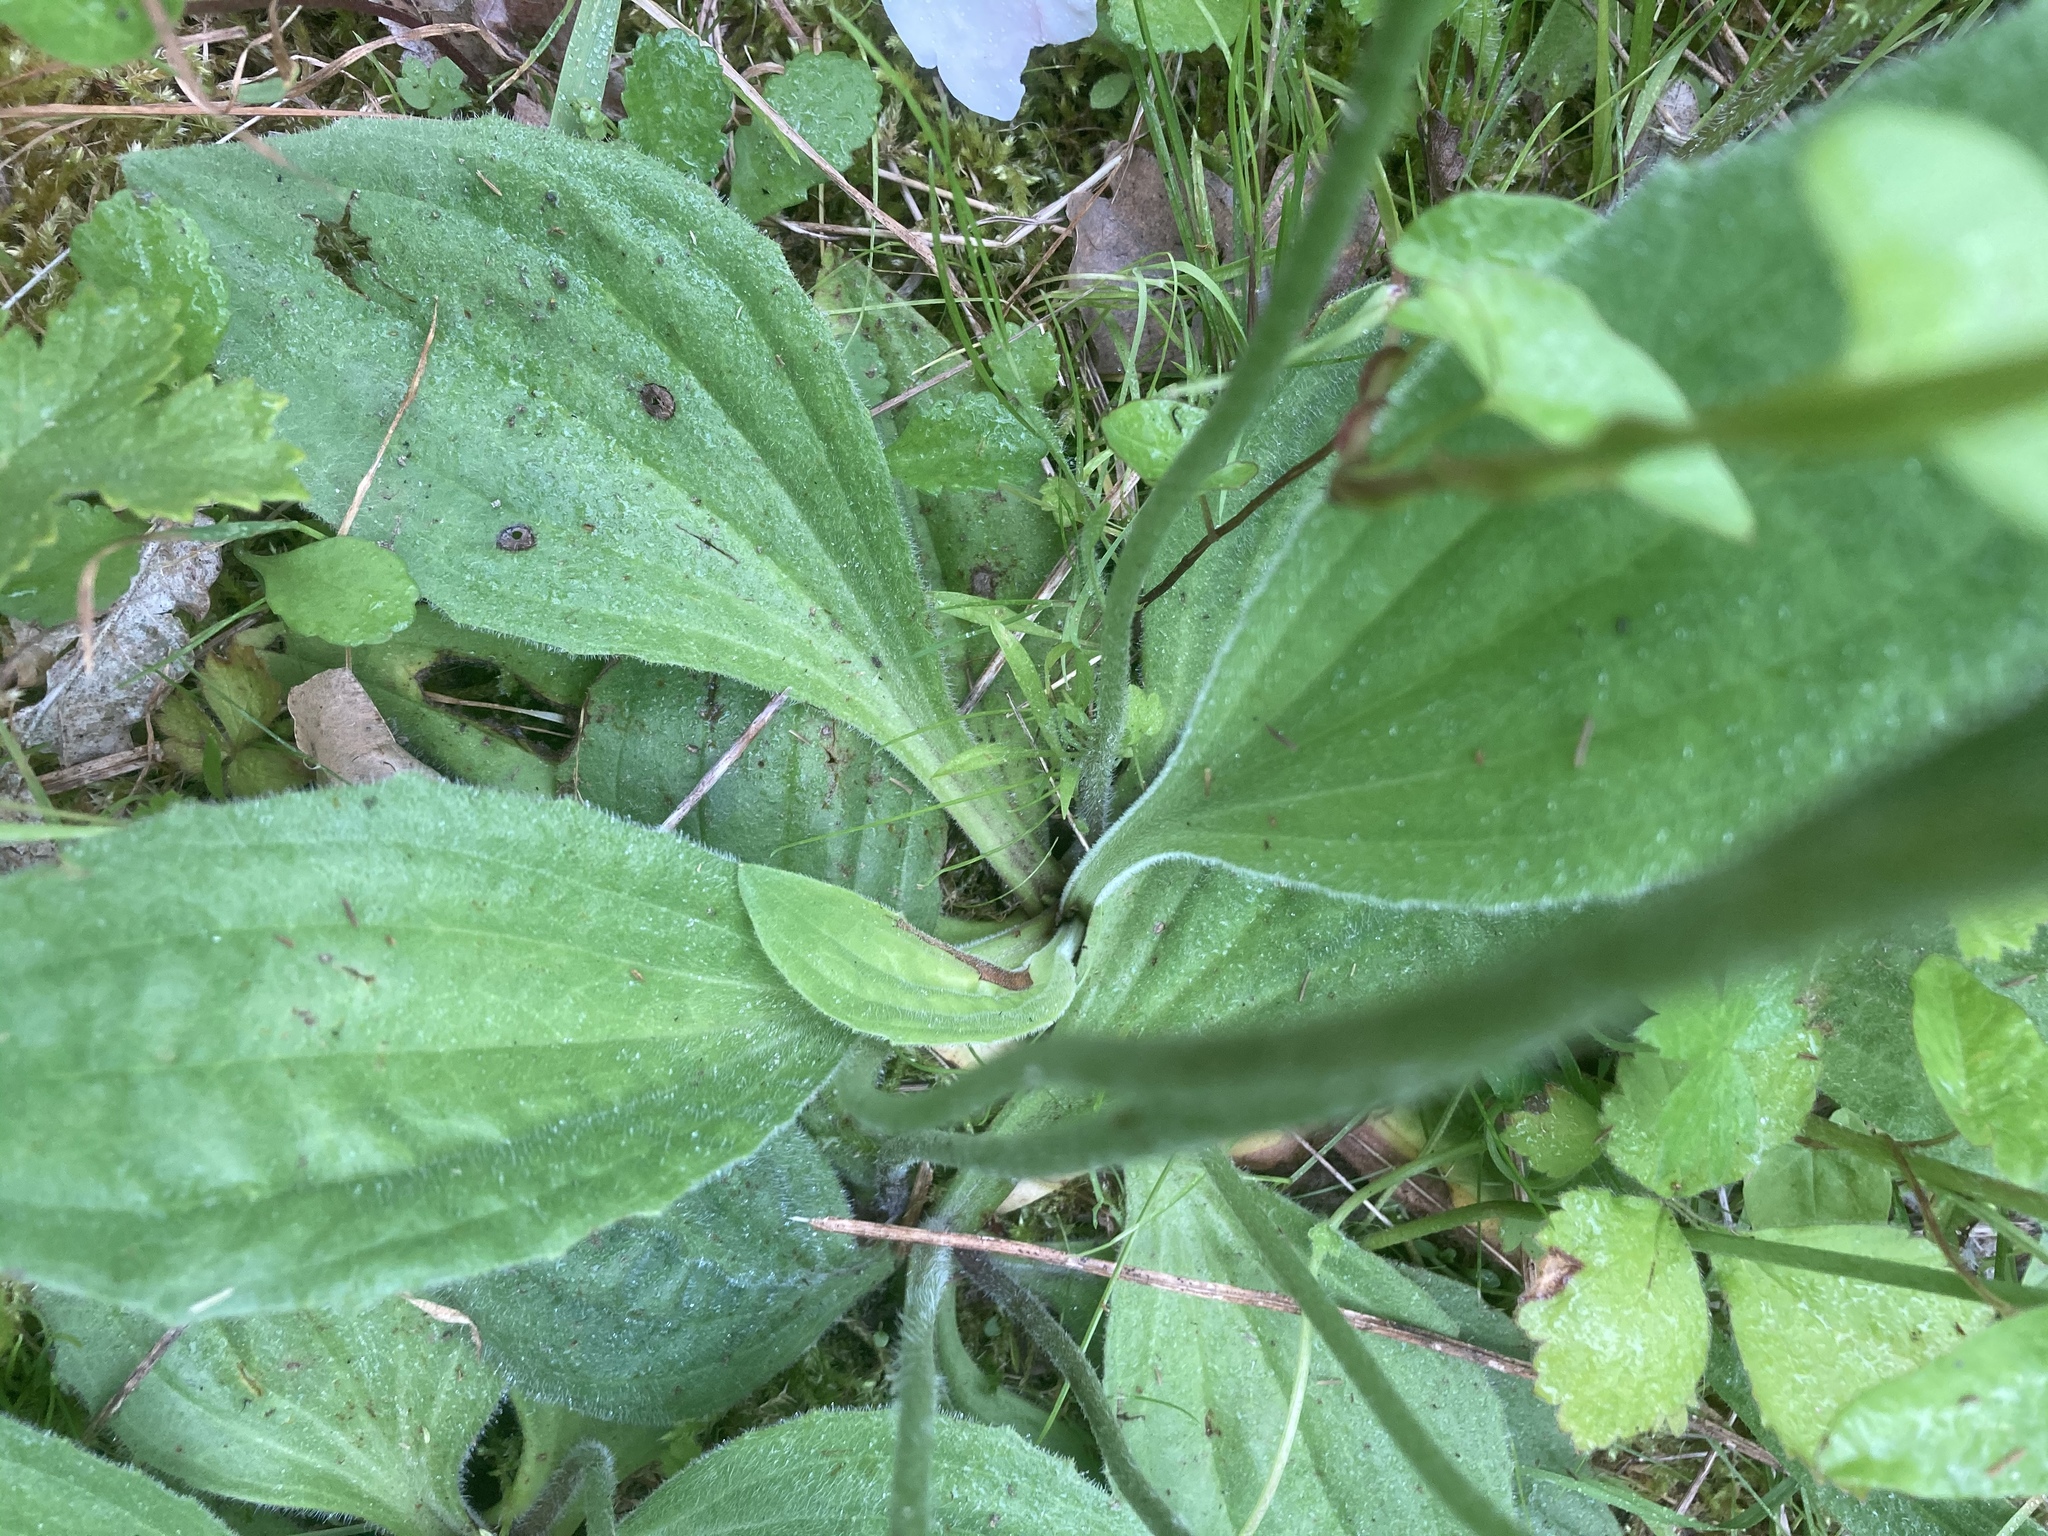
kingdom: Plantae
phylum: Tracheophyta
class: Magnoliopsida
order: Lamiales
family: Plantaginaceae
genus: Plantago
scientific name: Plantago media
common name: Hoary plantain
